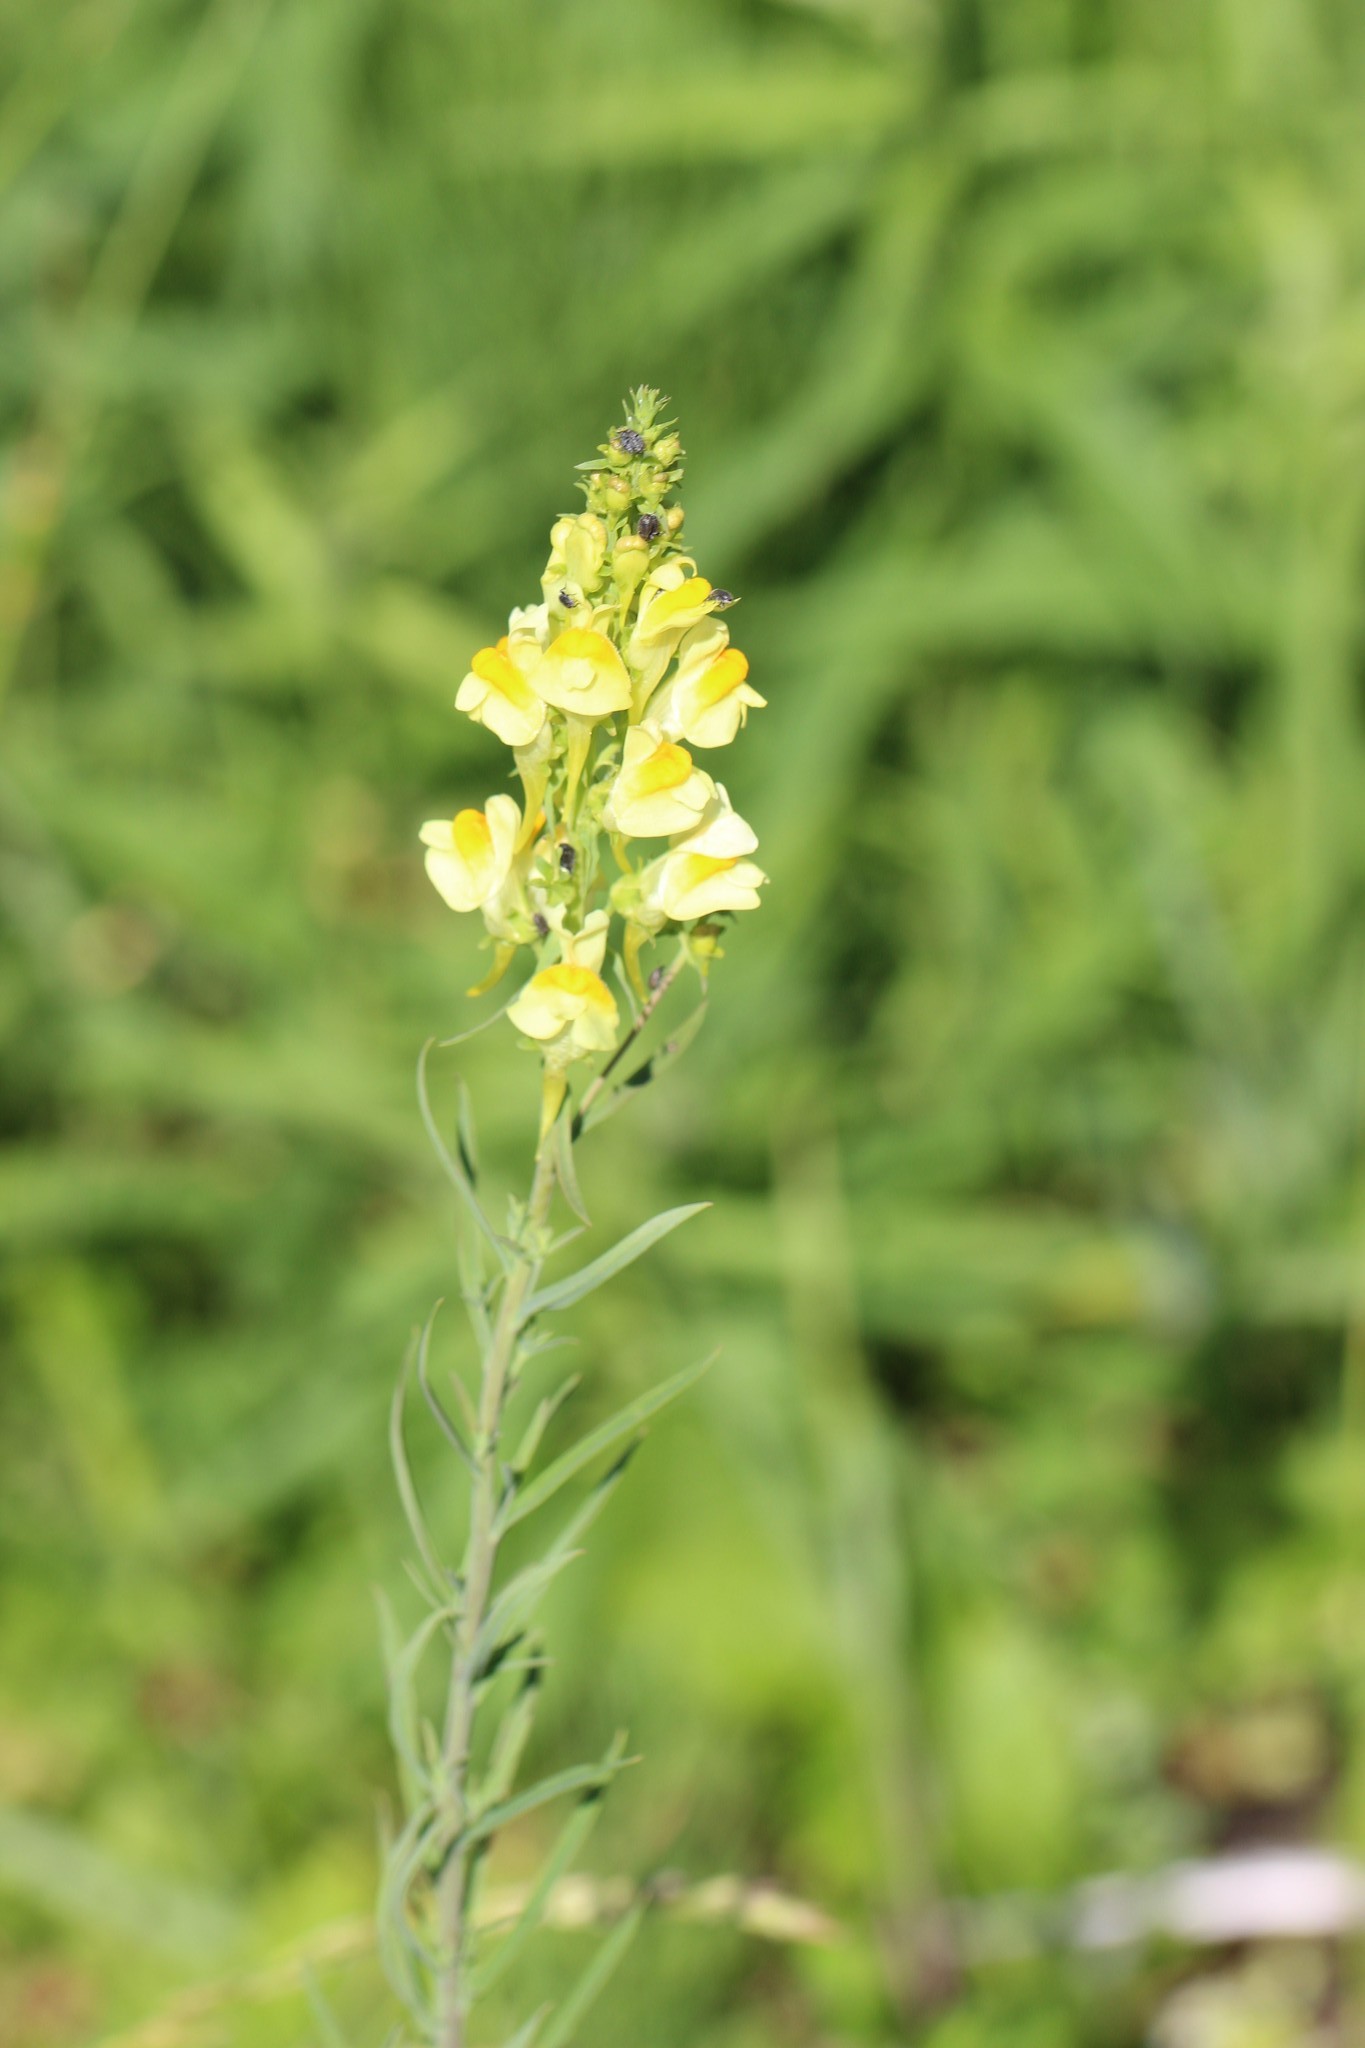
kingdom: Plantae
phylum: Tracheophyta
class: Magnoliopsida
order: Lamiales
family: Plantaginaceae
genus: Linaria
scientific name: Linaria vulgaris
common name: Butter and eggs
